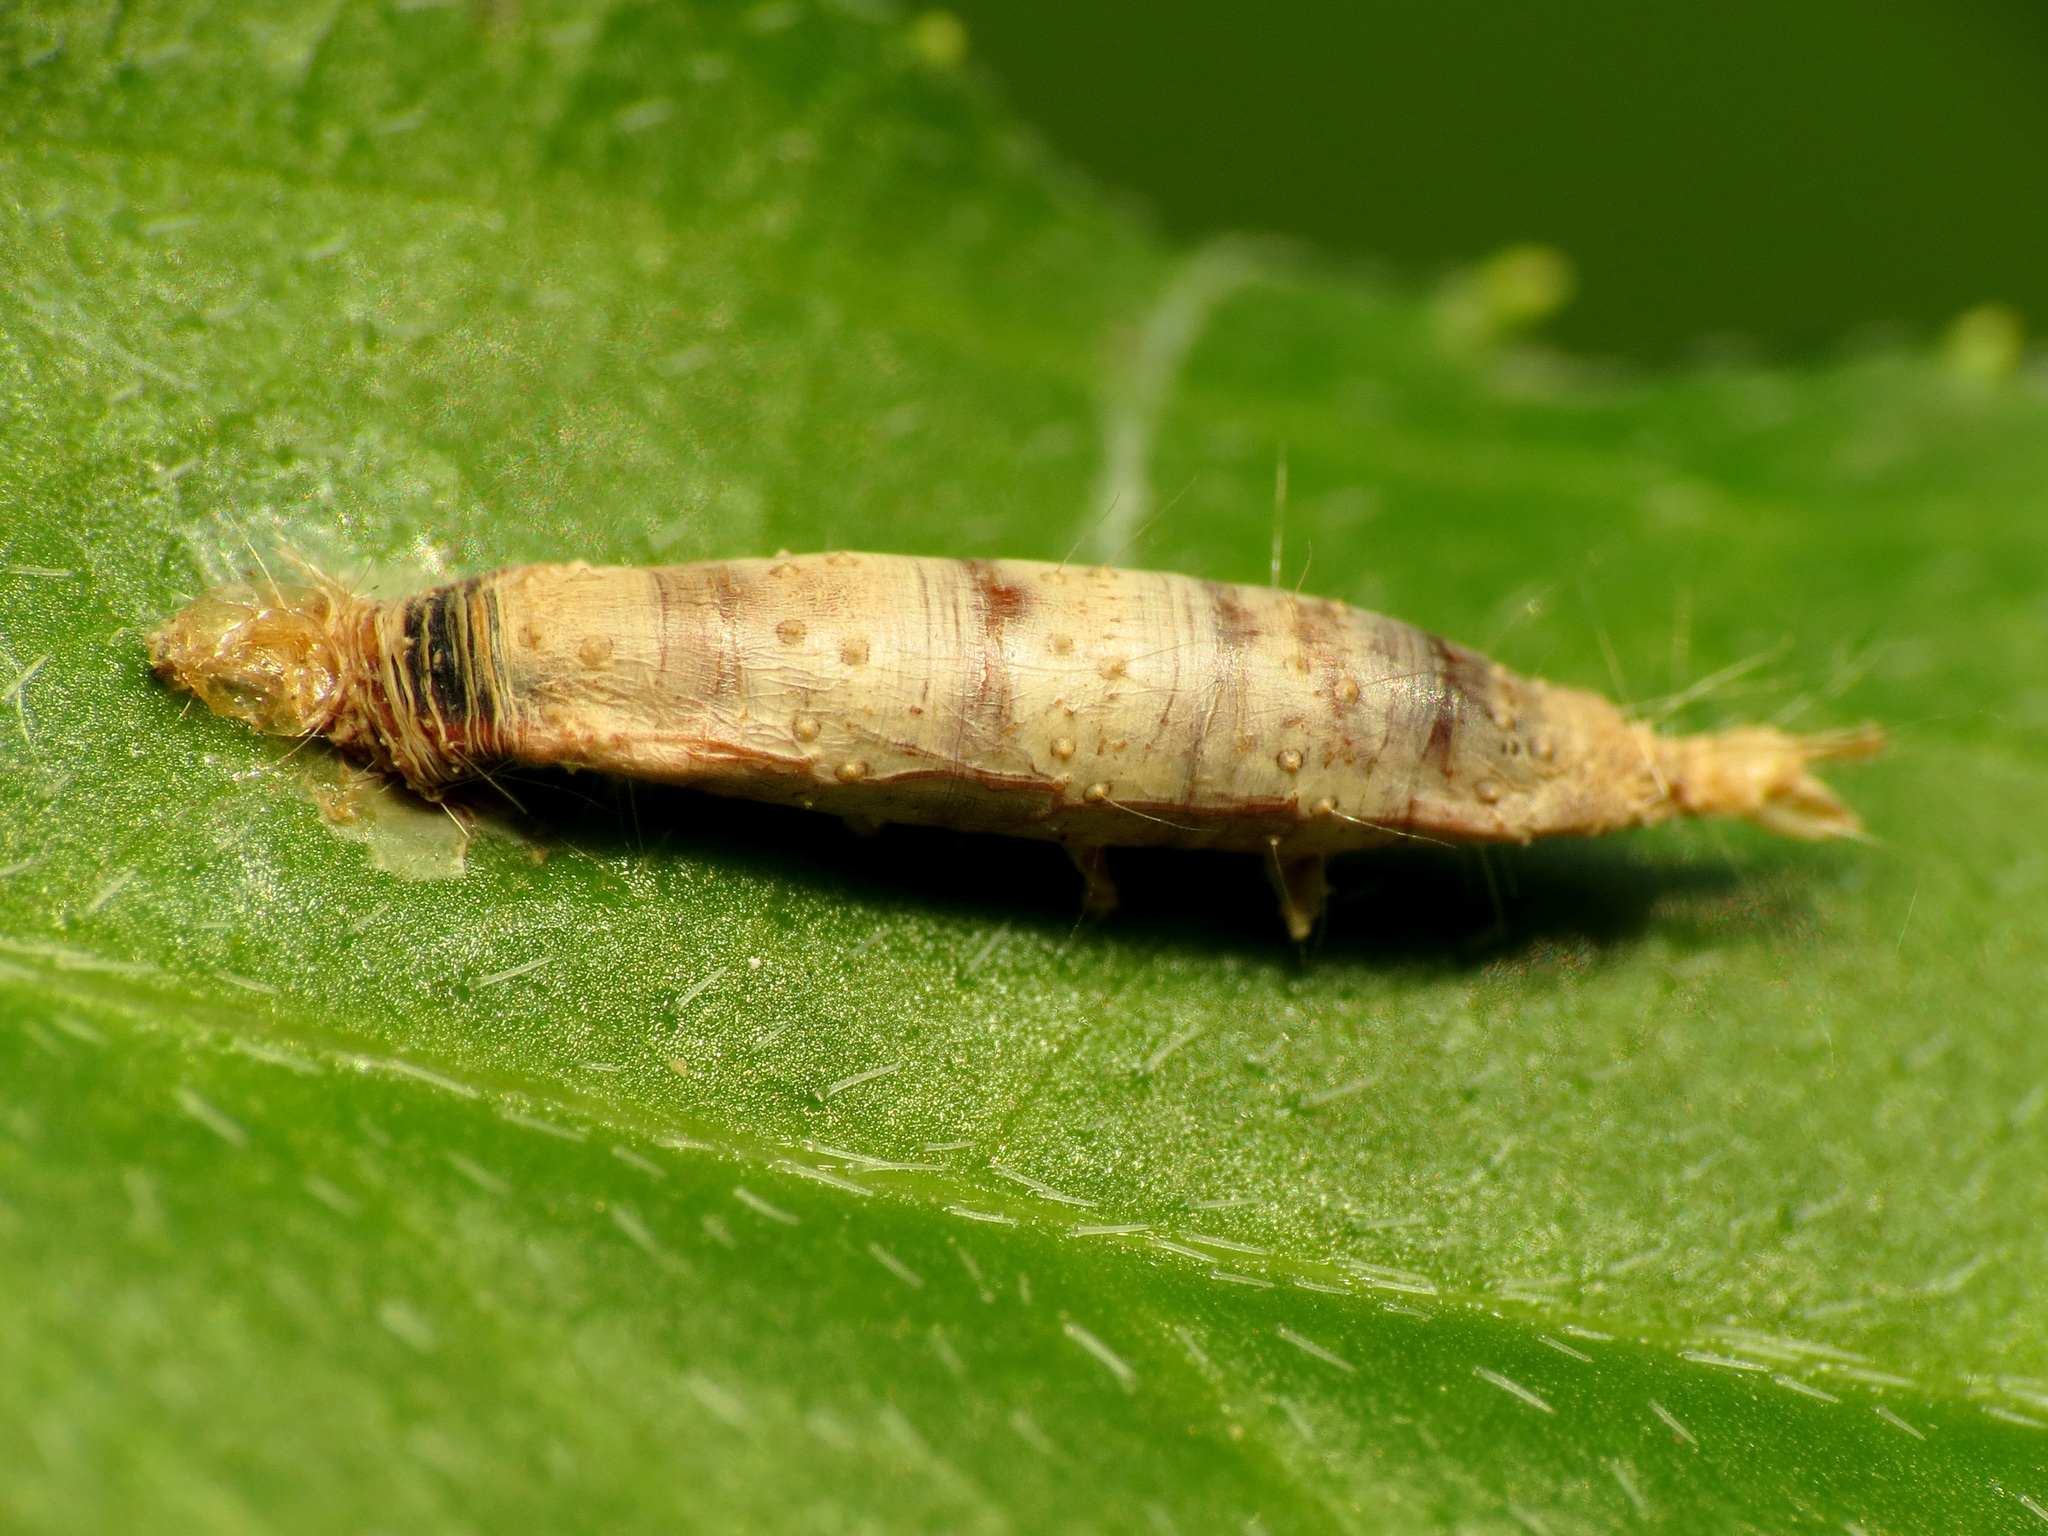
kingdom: Animalia
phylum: Arthropoda
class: Insecta
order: Hymenoptera
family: Braconidae
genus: Aleiodes
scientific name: Aleiodes
